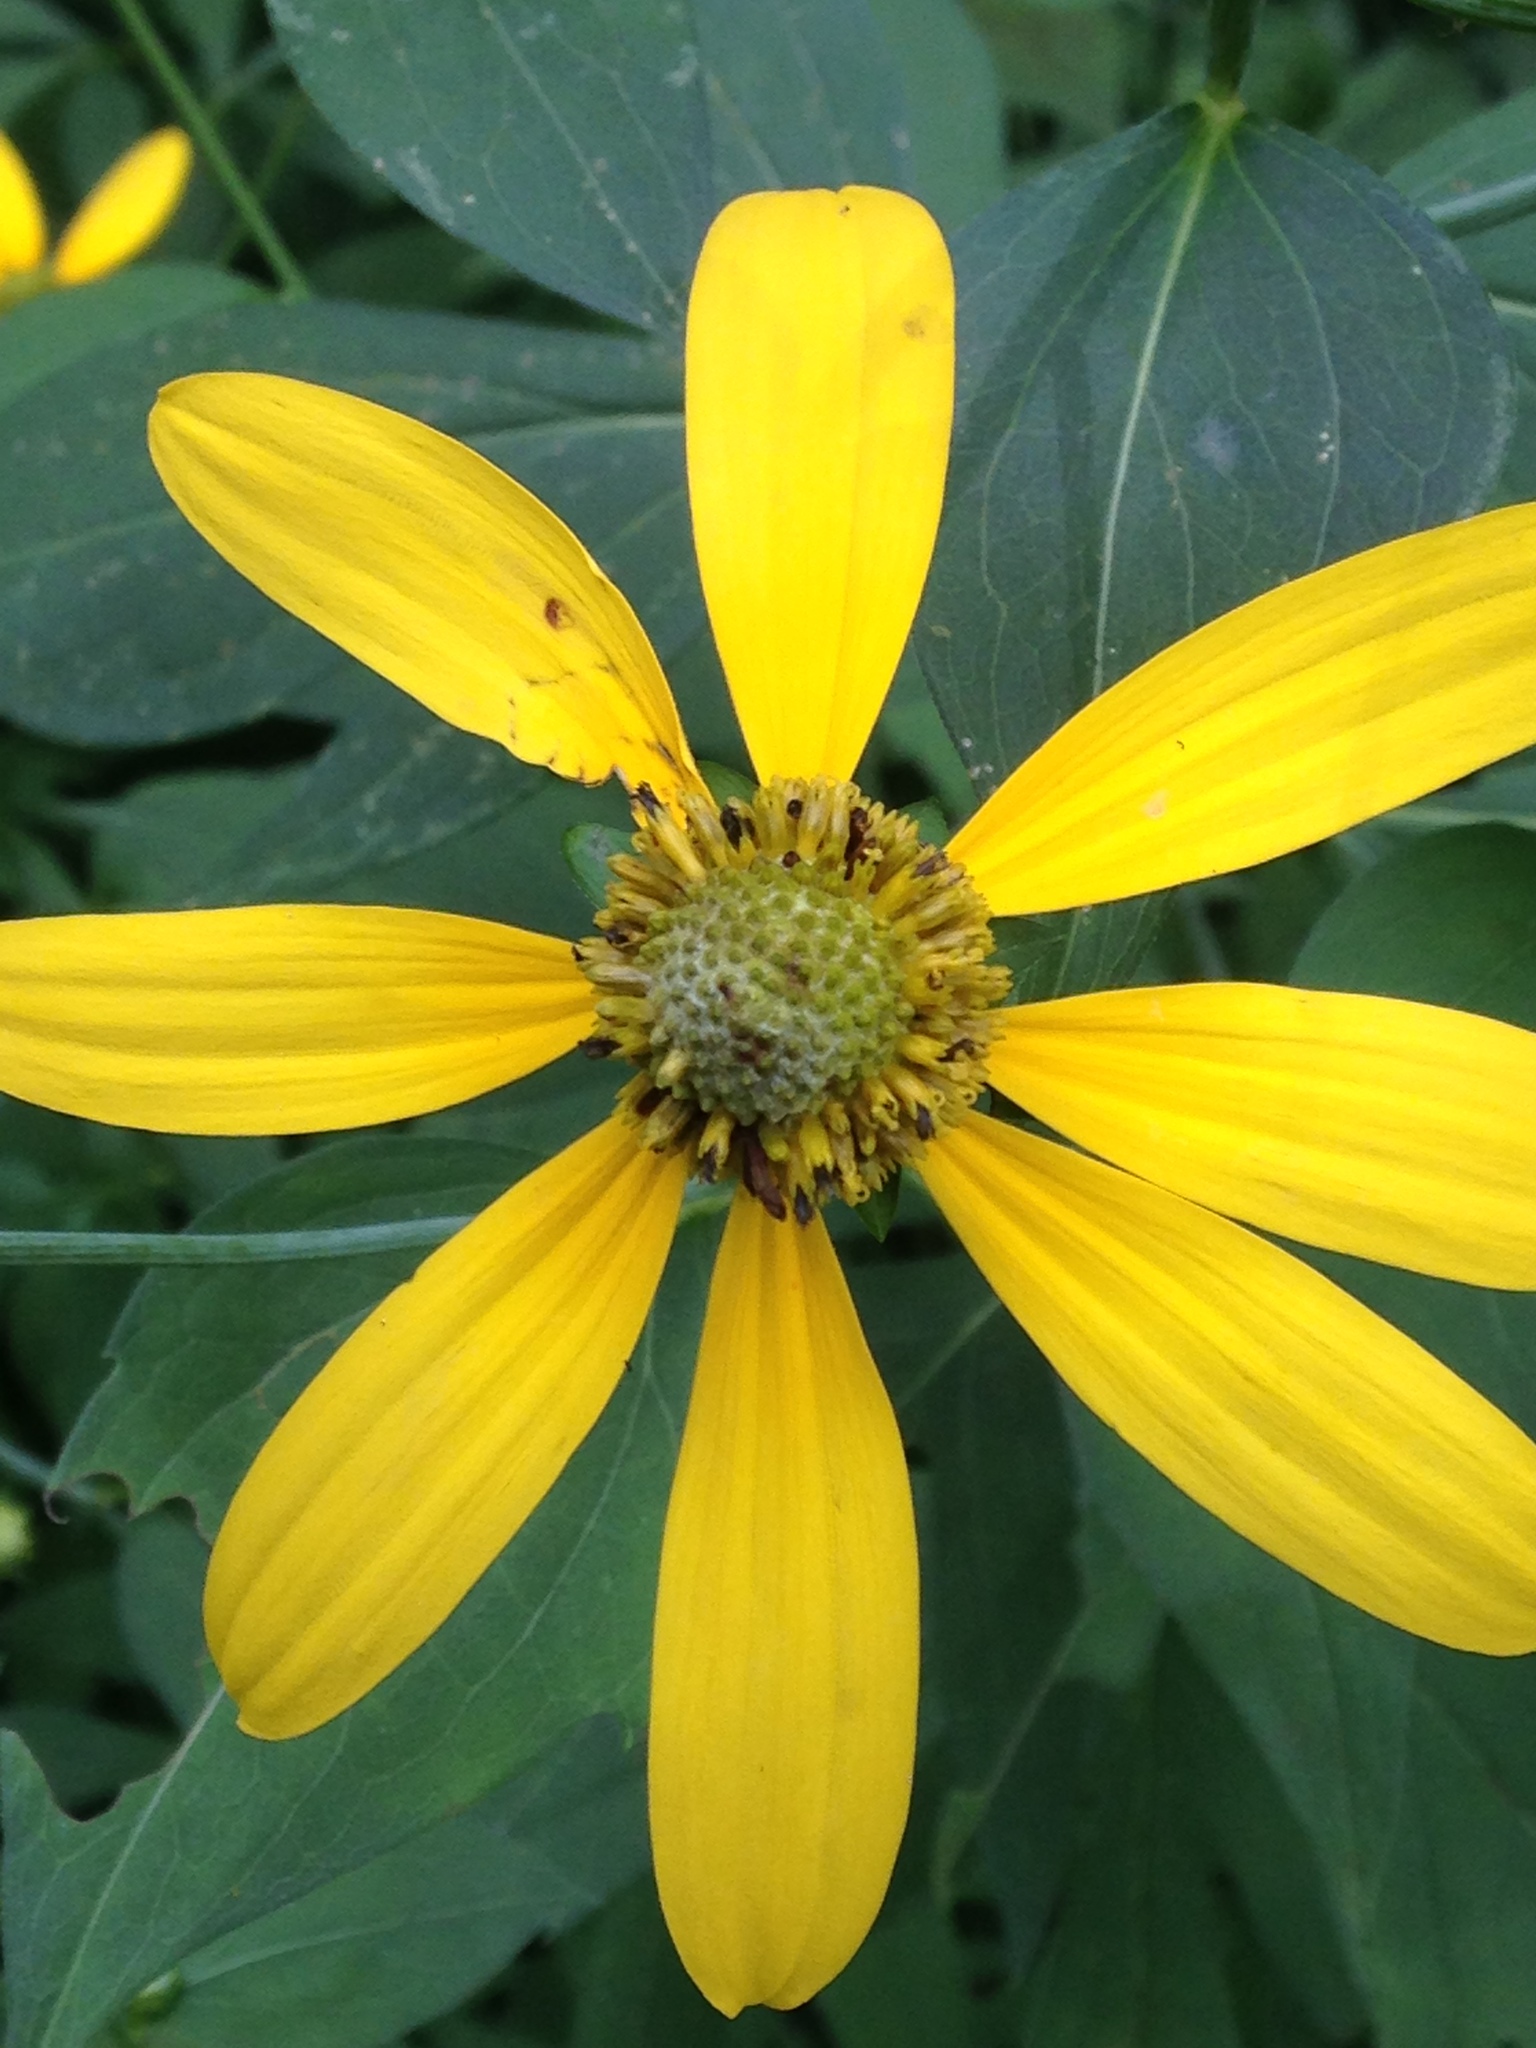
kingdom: Plantae
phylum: Tracheophyta
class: Magnoliopsida
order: Asterales
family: Asteraceae
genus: Rudbeckia
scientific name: Rudbeckia laciniata
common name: Coneflower
